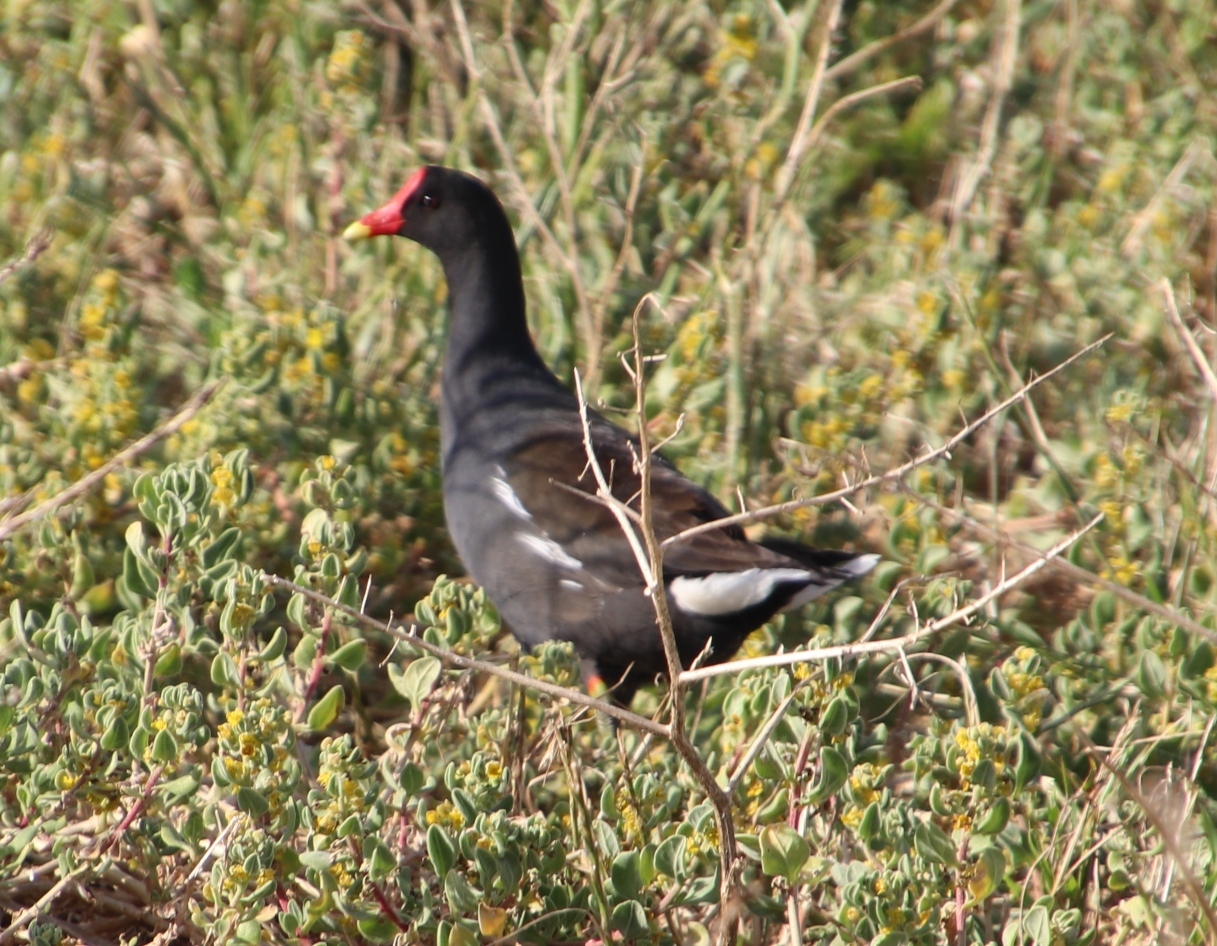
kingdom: Animalia
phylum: Chordata
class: Aves
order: Gruiformes
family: Rallidae
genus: Gallinula
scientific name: Gallinula chloropus
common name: Common moorhen
